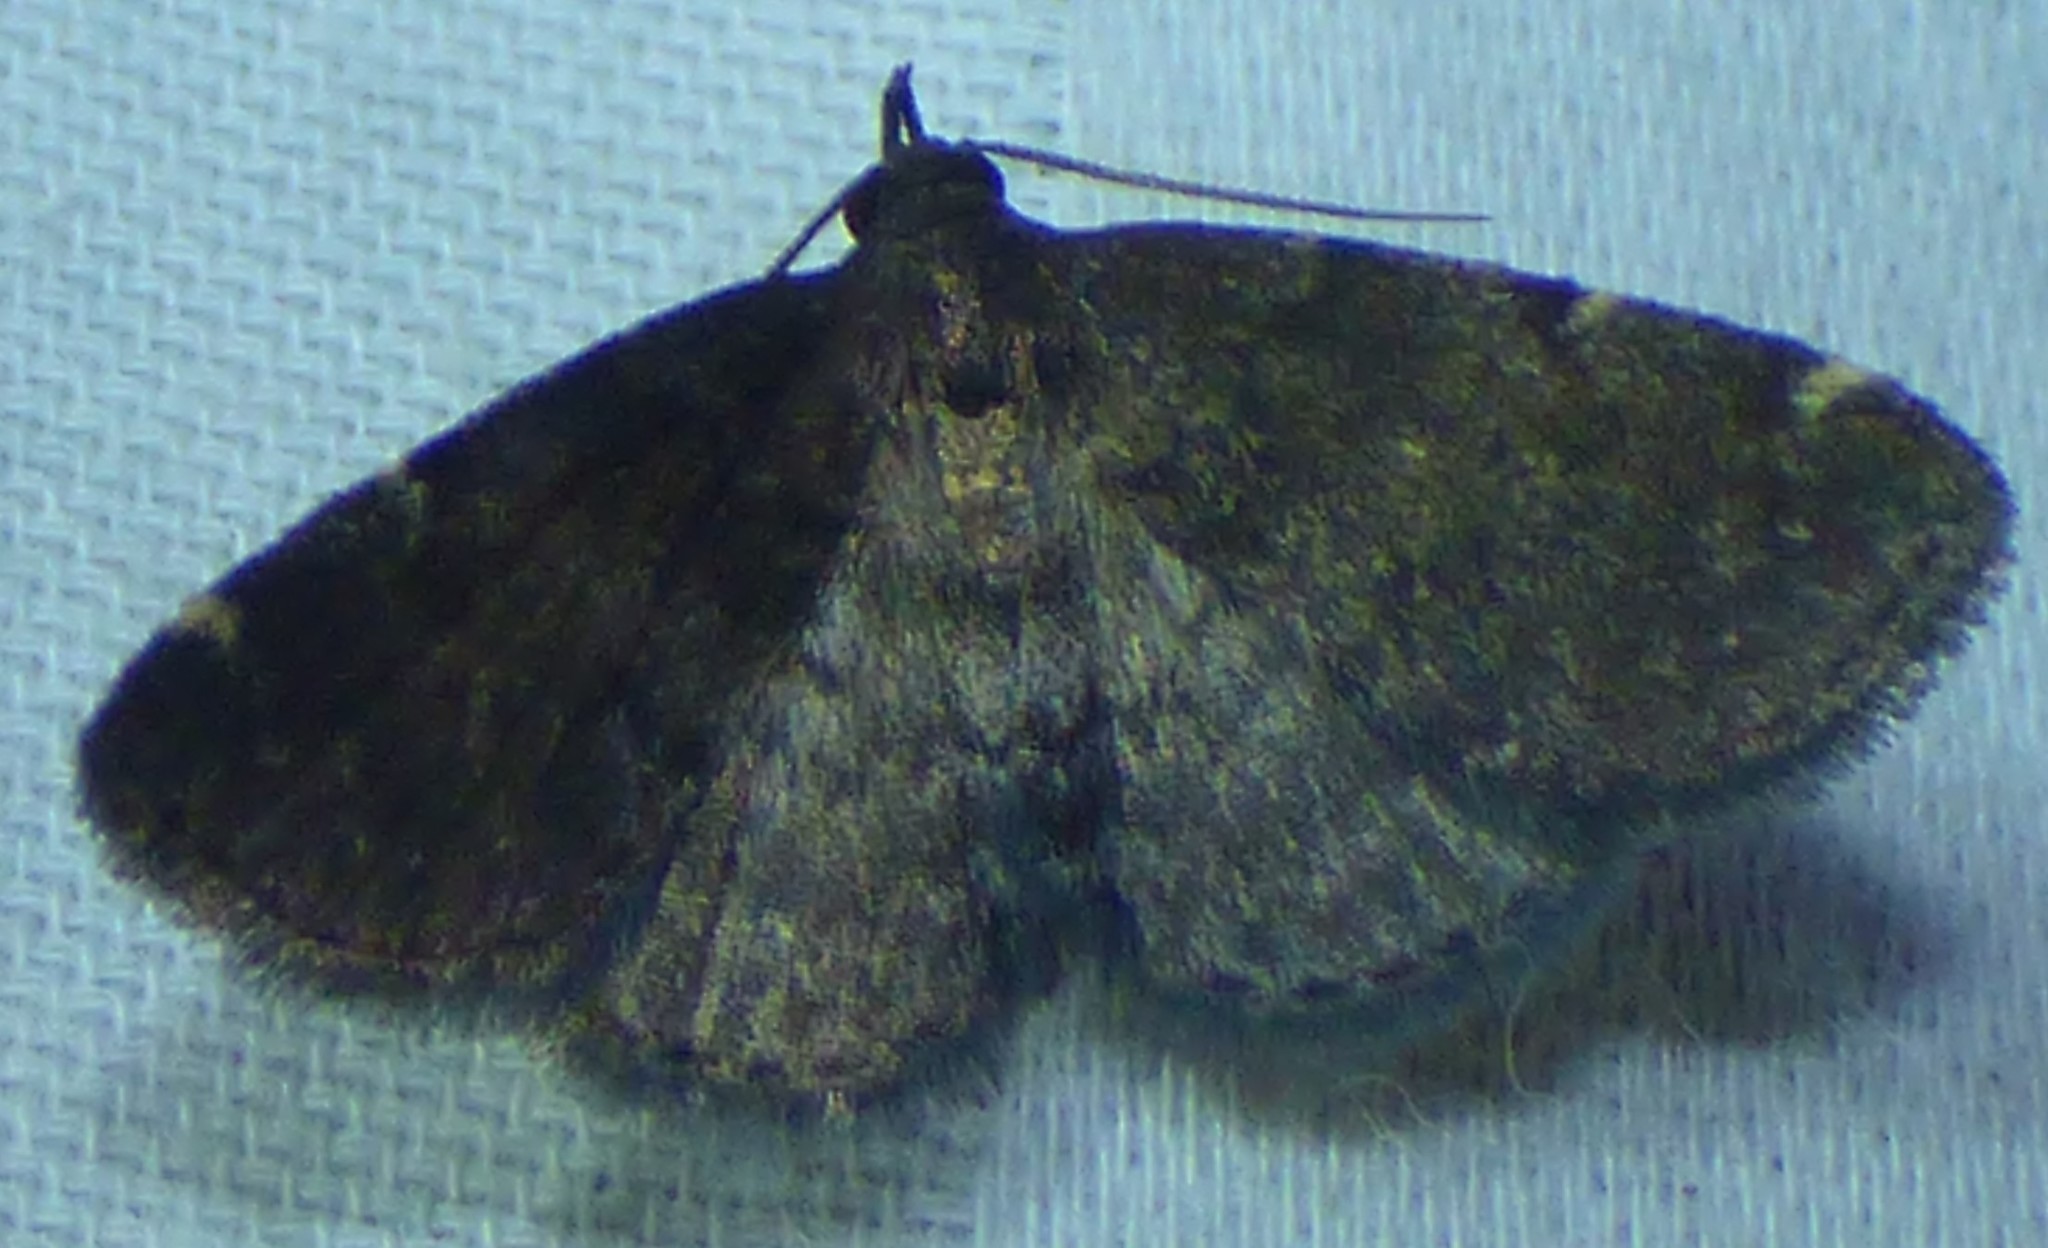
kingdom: Animalia
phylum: Arthropoda
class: Insecta
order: Lepidoptera
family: Erebidae
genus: Idia
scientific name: Idia forbesii
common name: Forbes' idia moth
